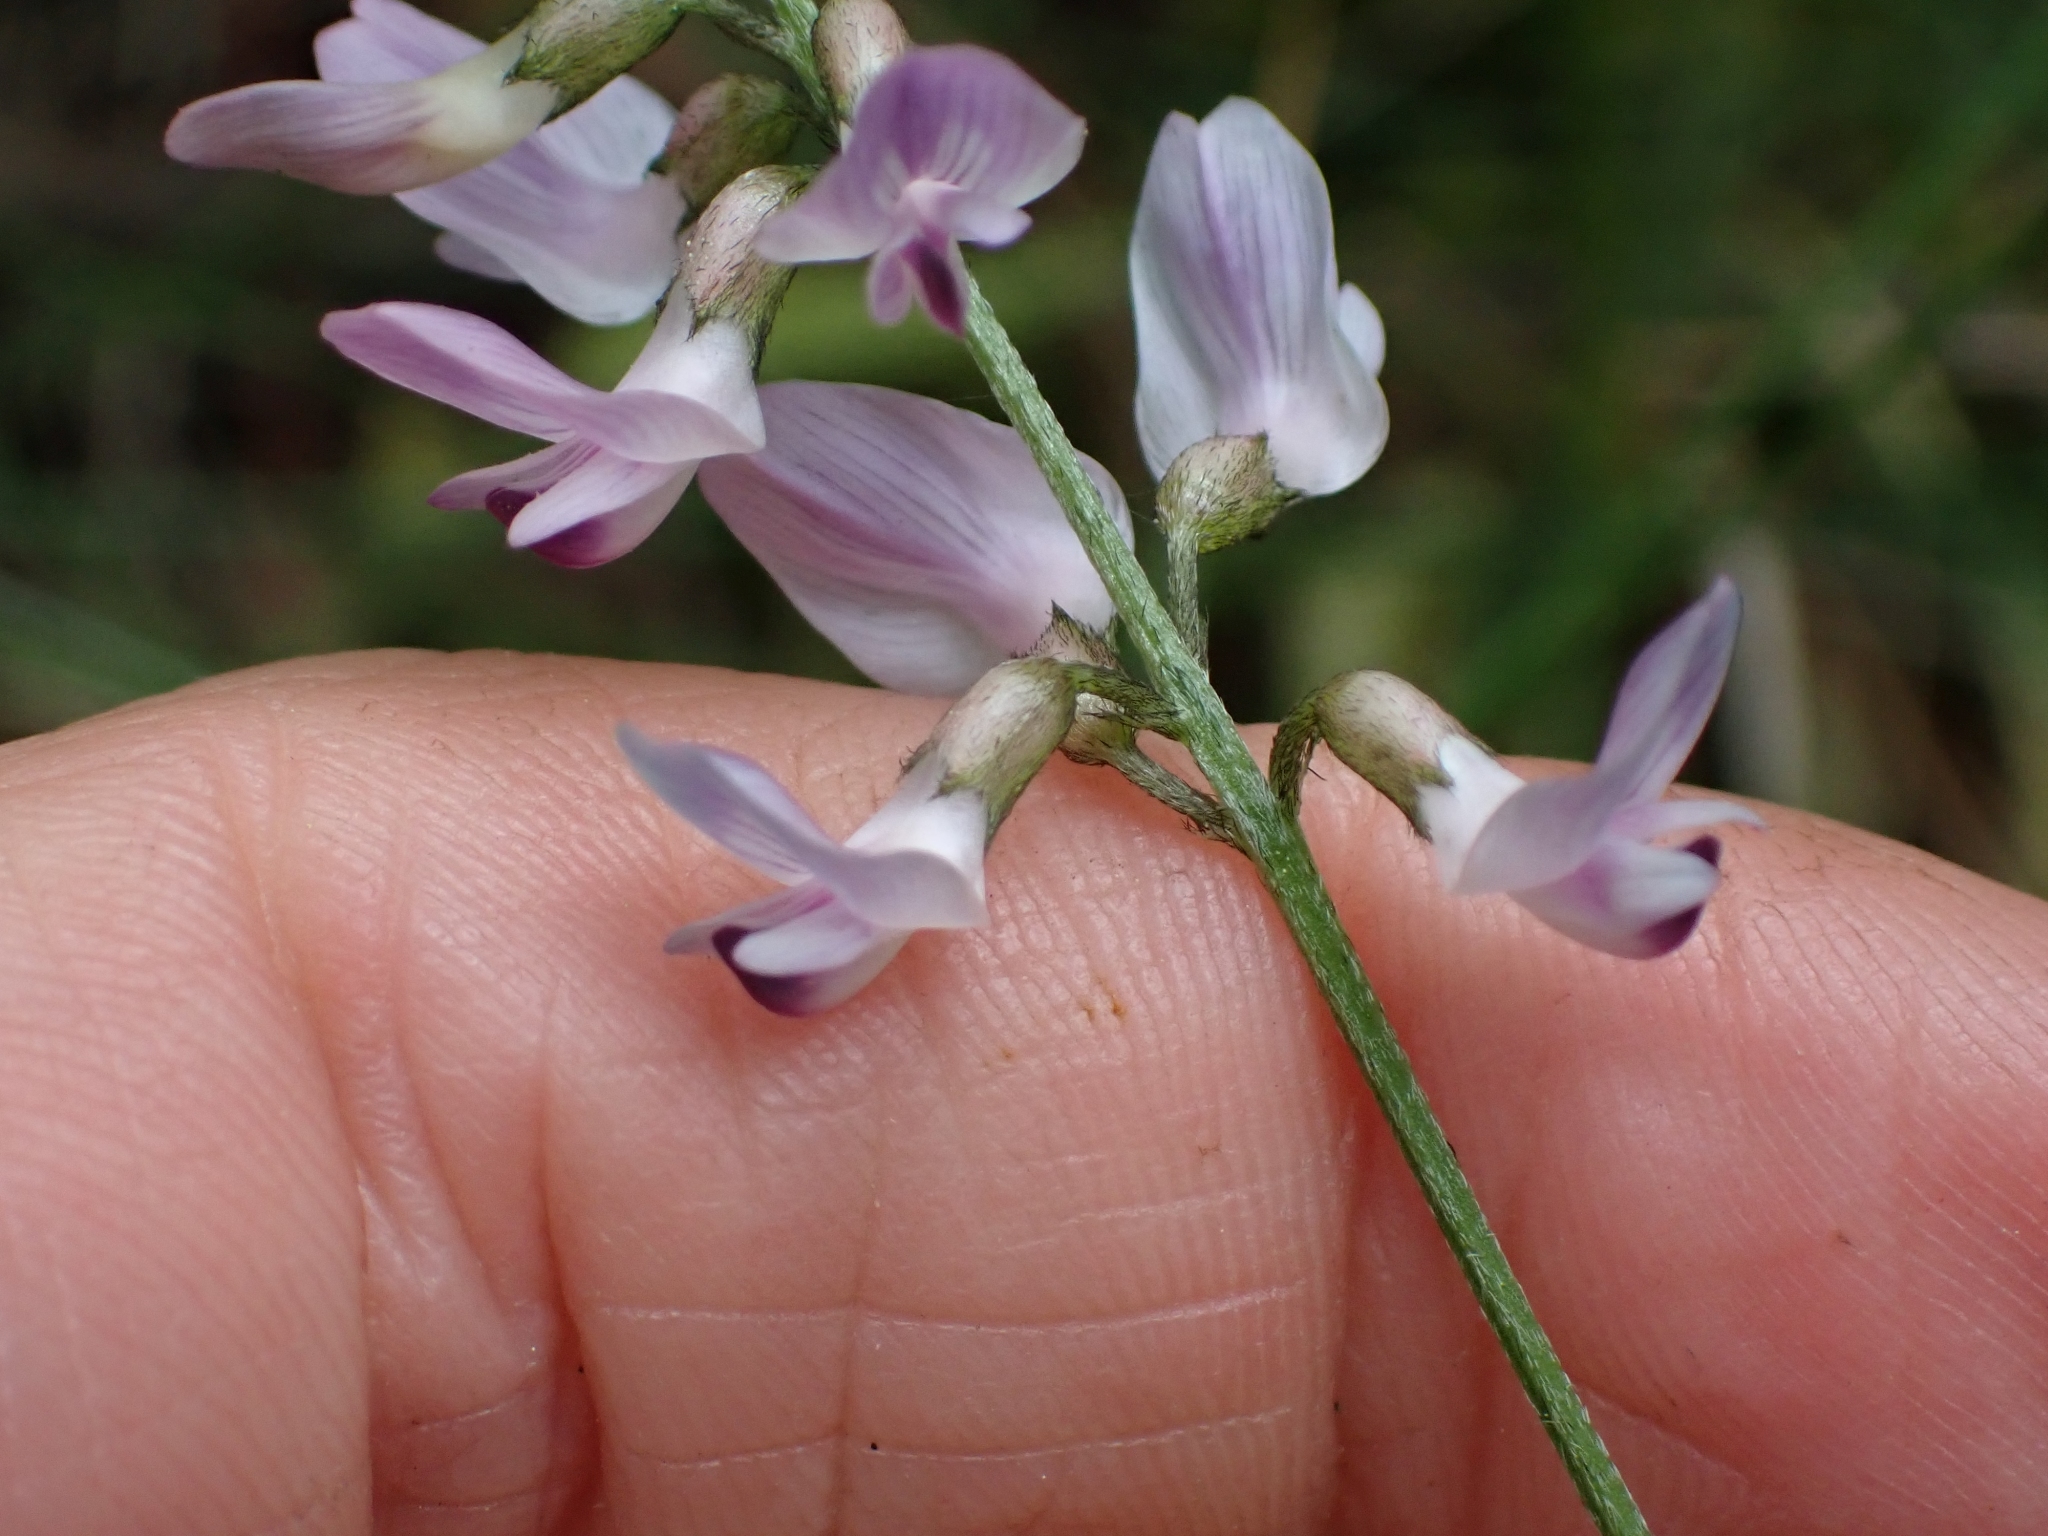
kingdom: Plantae
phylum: Tracheophyta
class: Magnoliopsida
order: Fabales
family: Fabaceae
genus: Astragalus
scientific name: Astragalus miser
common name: Timber milkvetch
